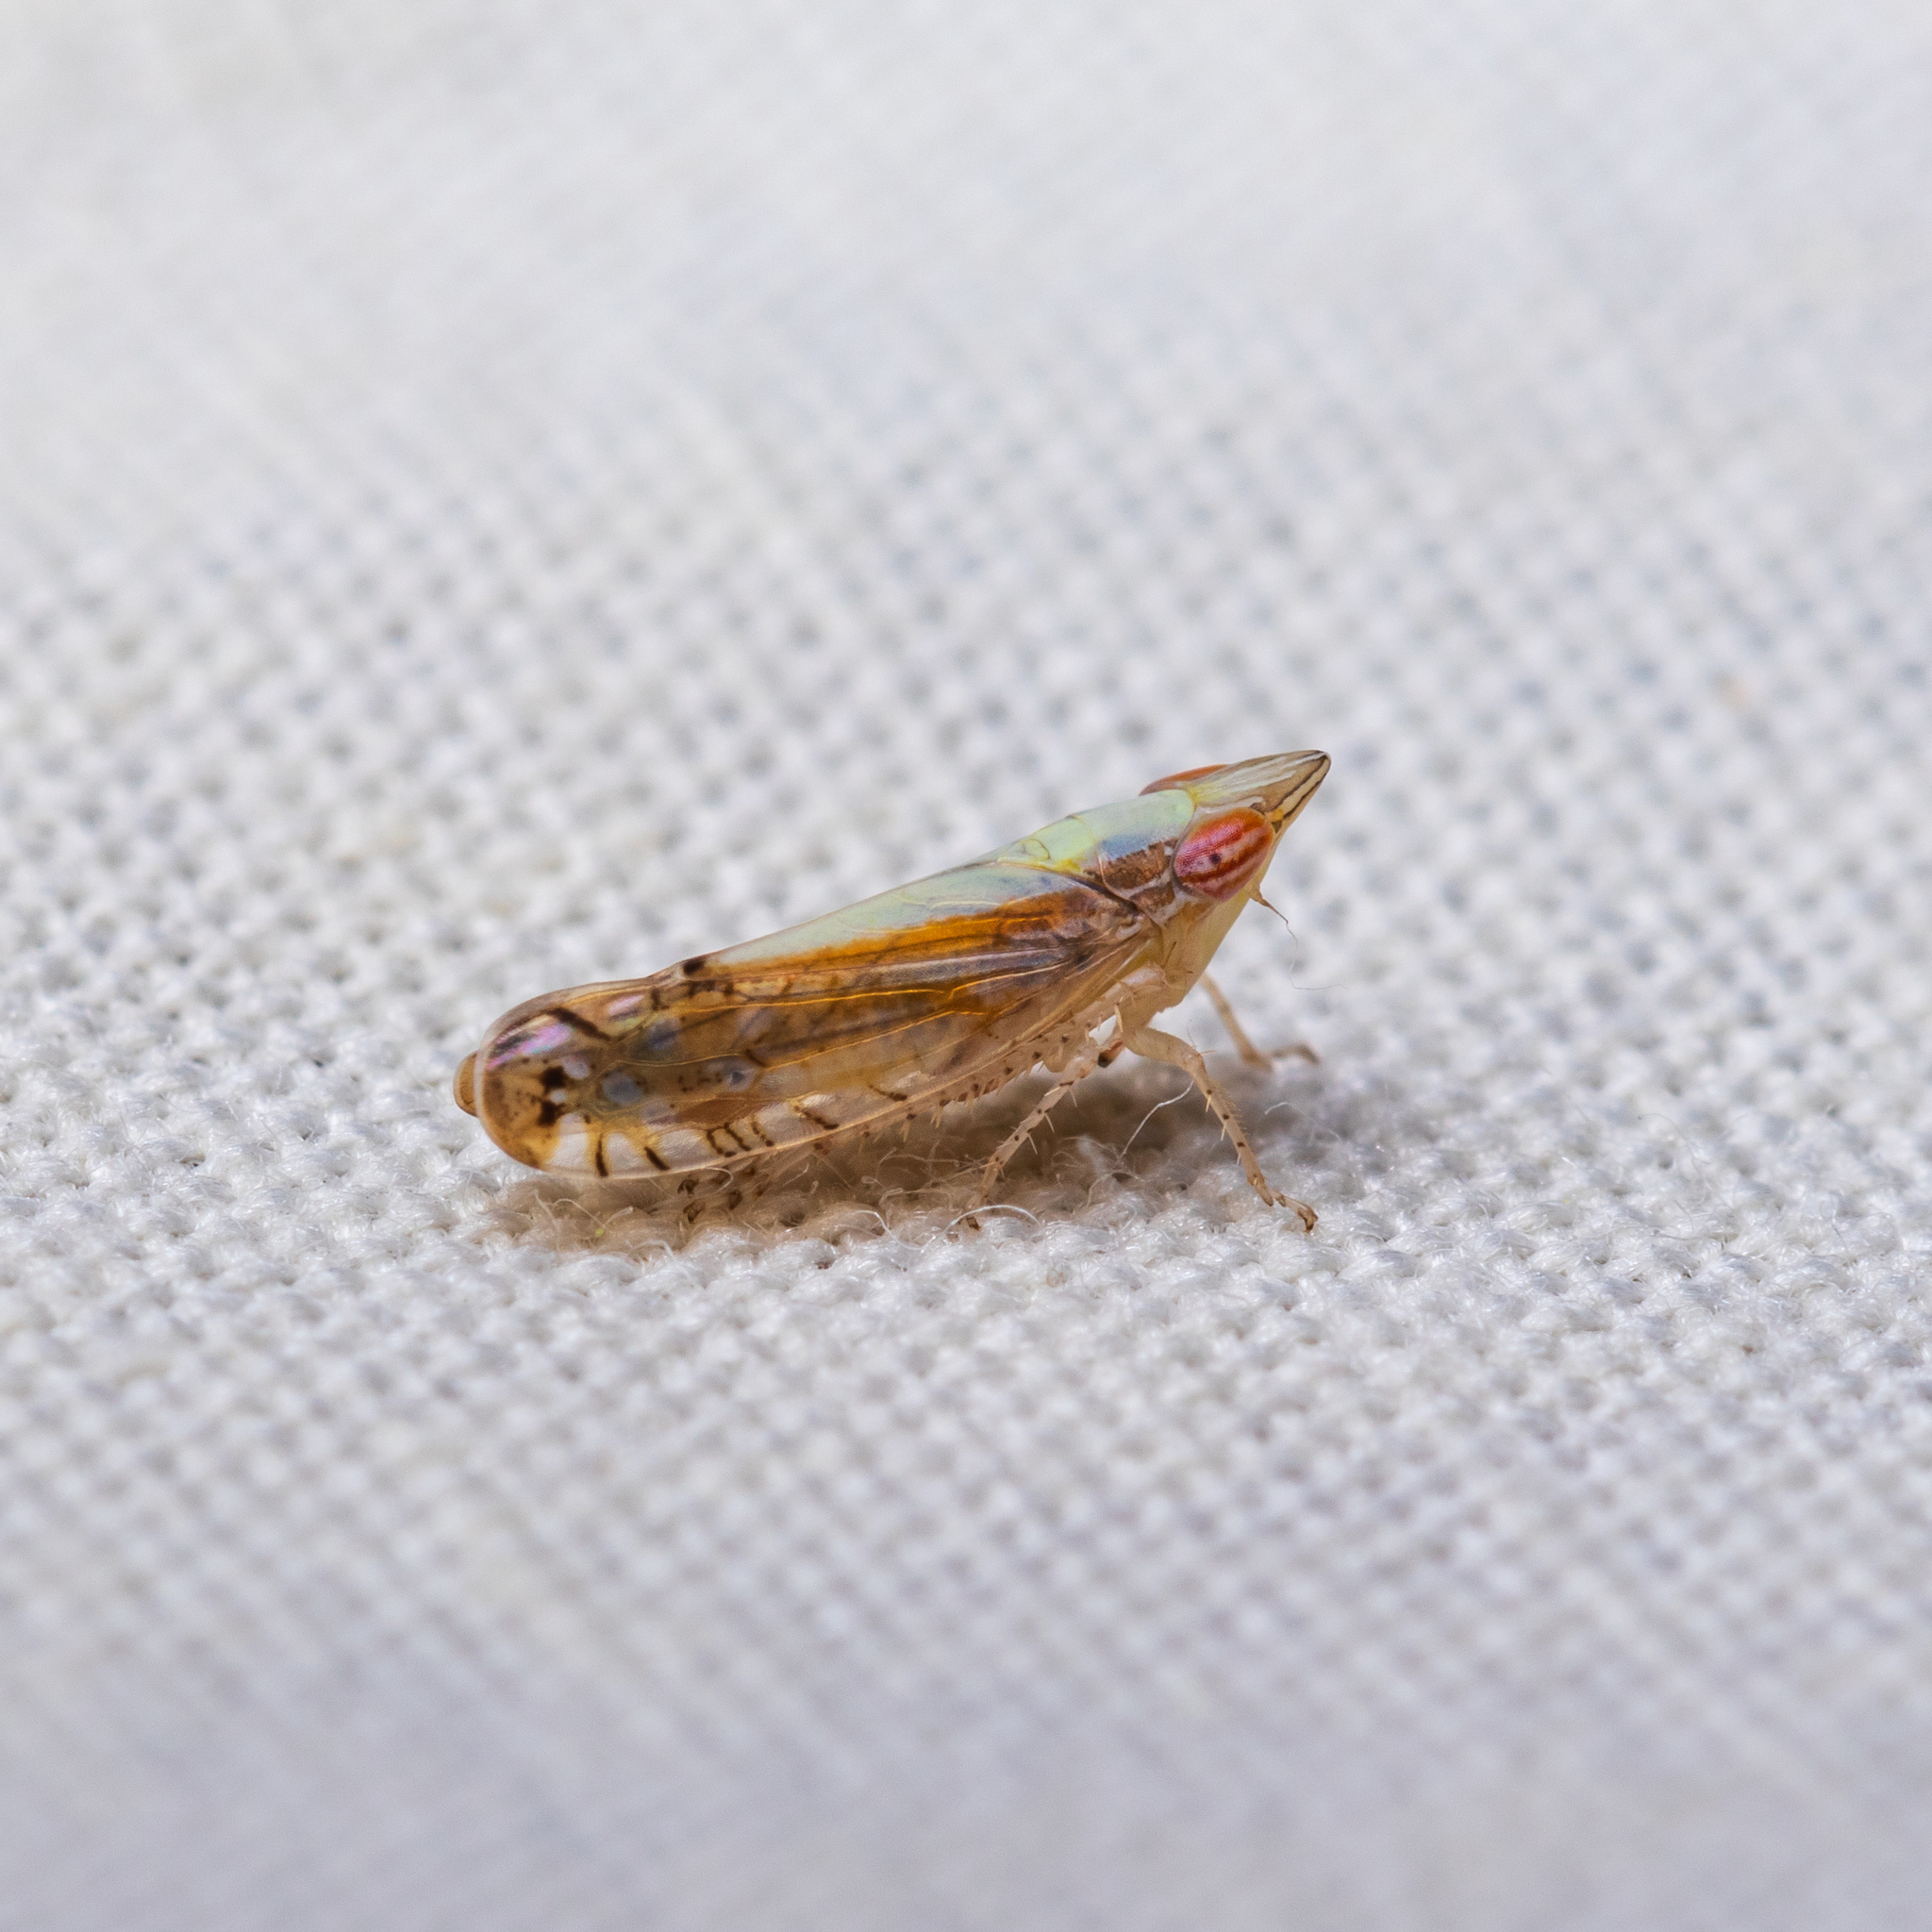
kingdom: Animalia
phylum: Arthropoda
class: Insecta
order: Hemiptera
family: Cicadellidae
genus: Scaphytopius
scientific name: Scaphytopius elegans
